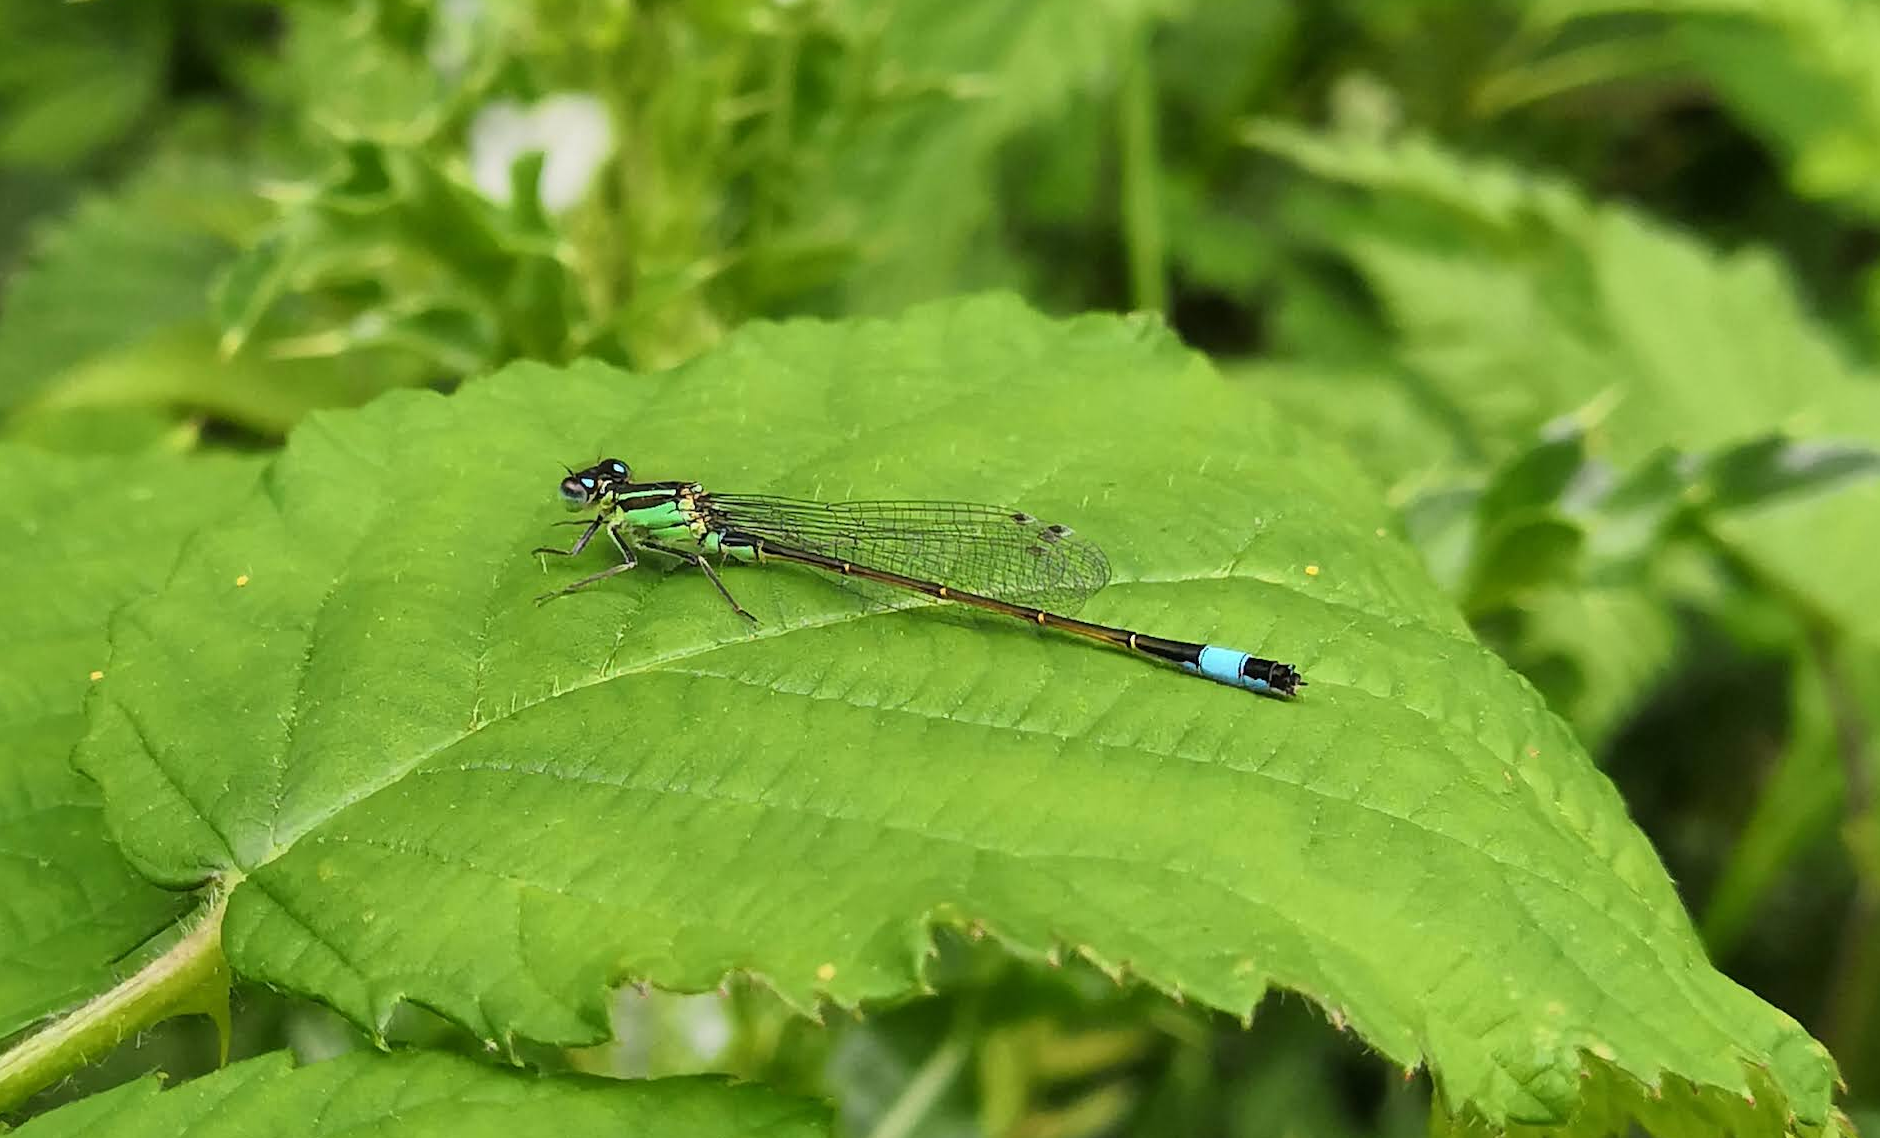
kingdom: Animalia
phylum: Arthropoda
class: Insecta
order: Odonata
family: Coenagrionidae
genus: Ischnura
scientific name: Ischnura elegans
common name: Blue-tailed damselfly
